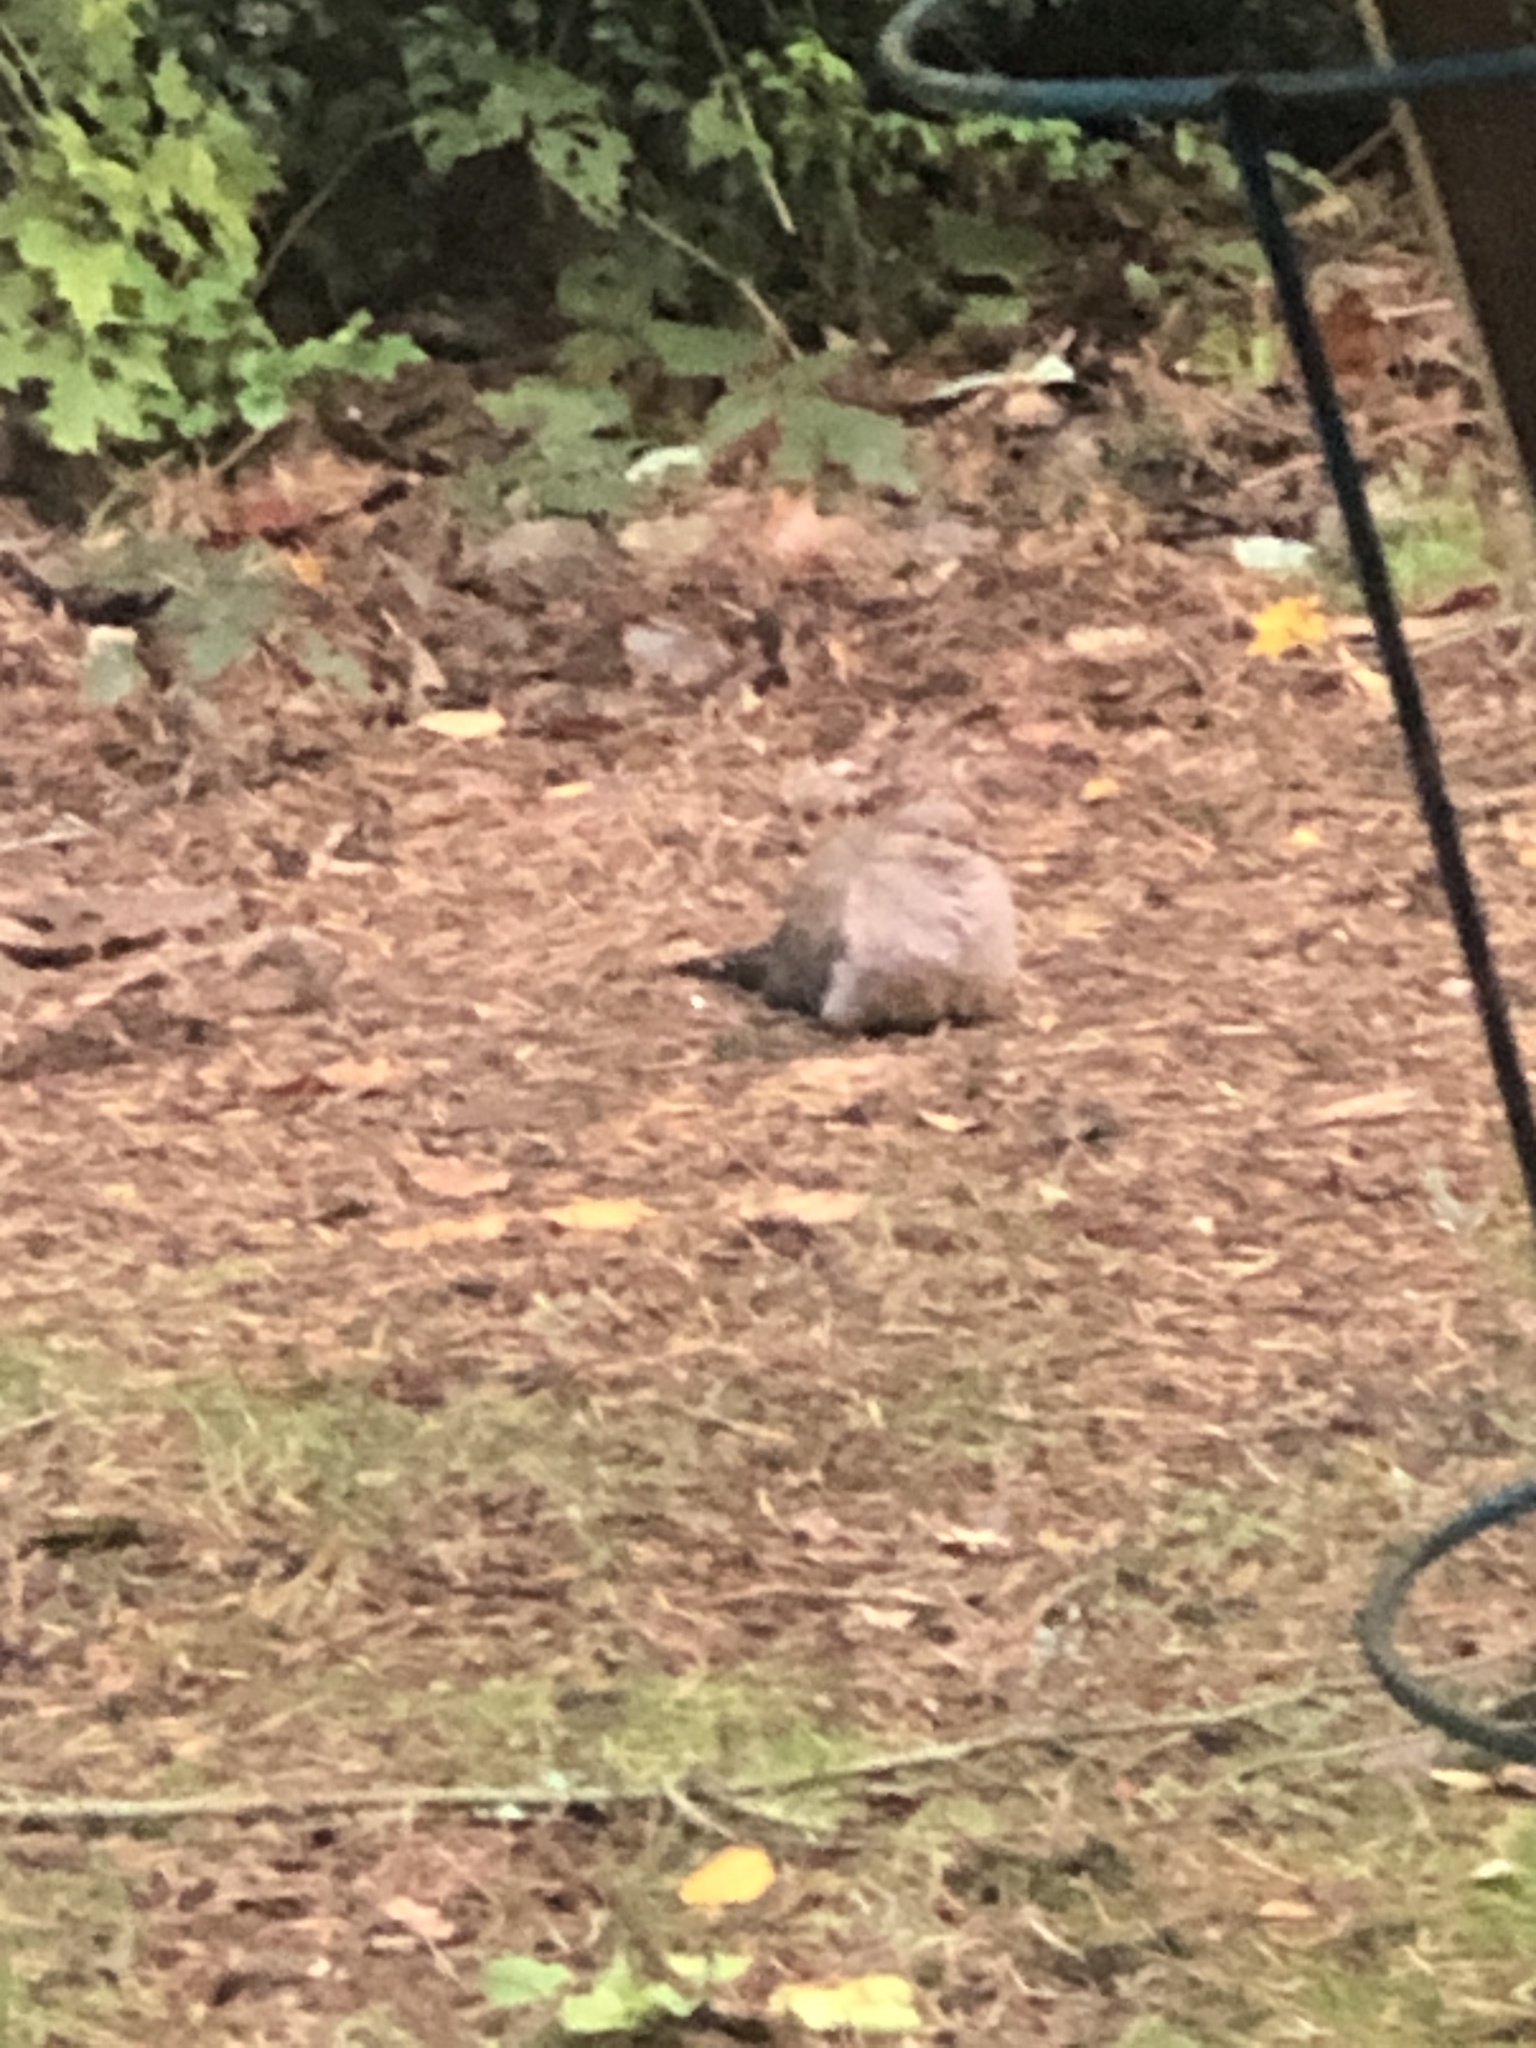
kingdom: Animalia
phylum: Chordata
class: Aves
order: Columbiformes
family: Columbidae
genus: Zenaida
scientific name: Zenaida macroura
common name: Mourning dove
